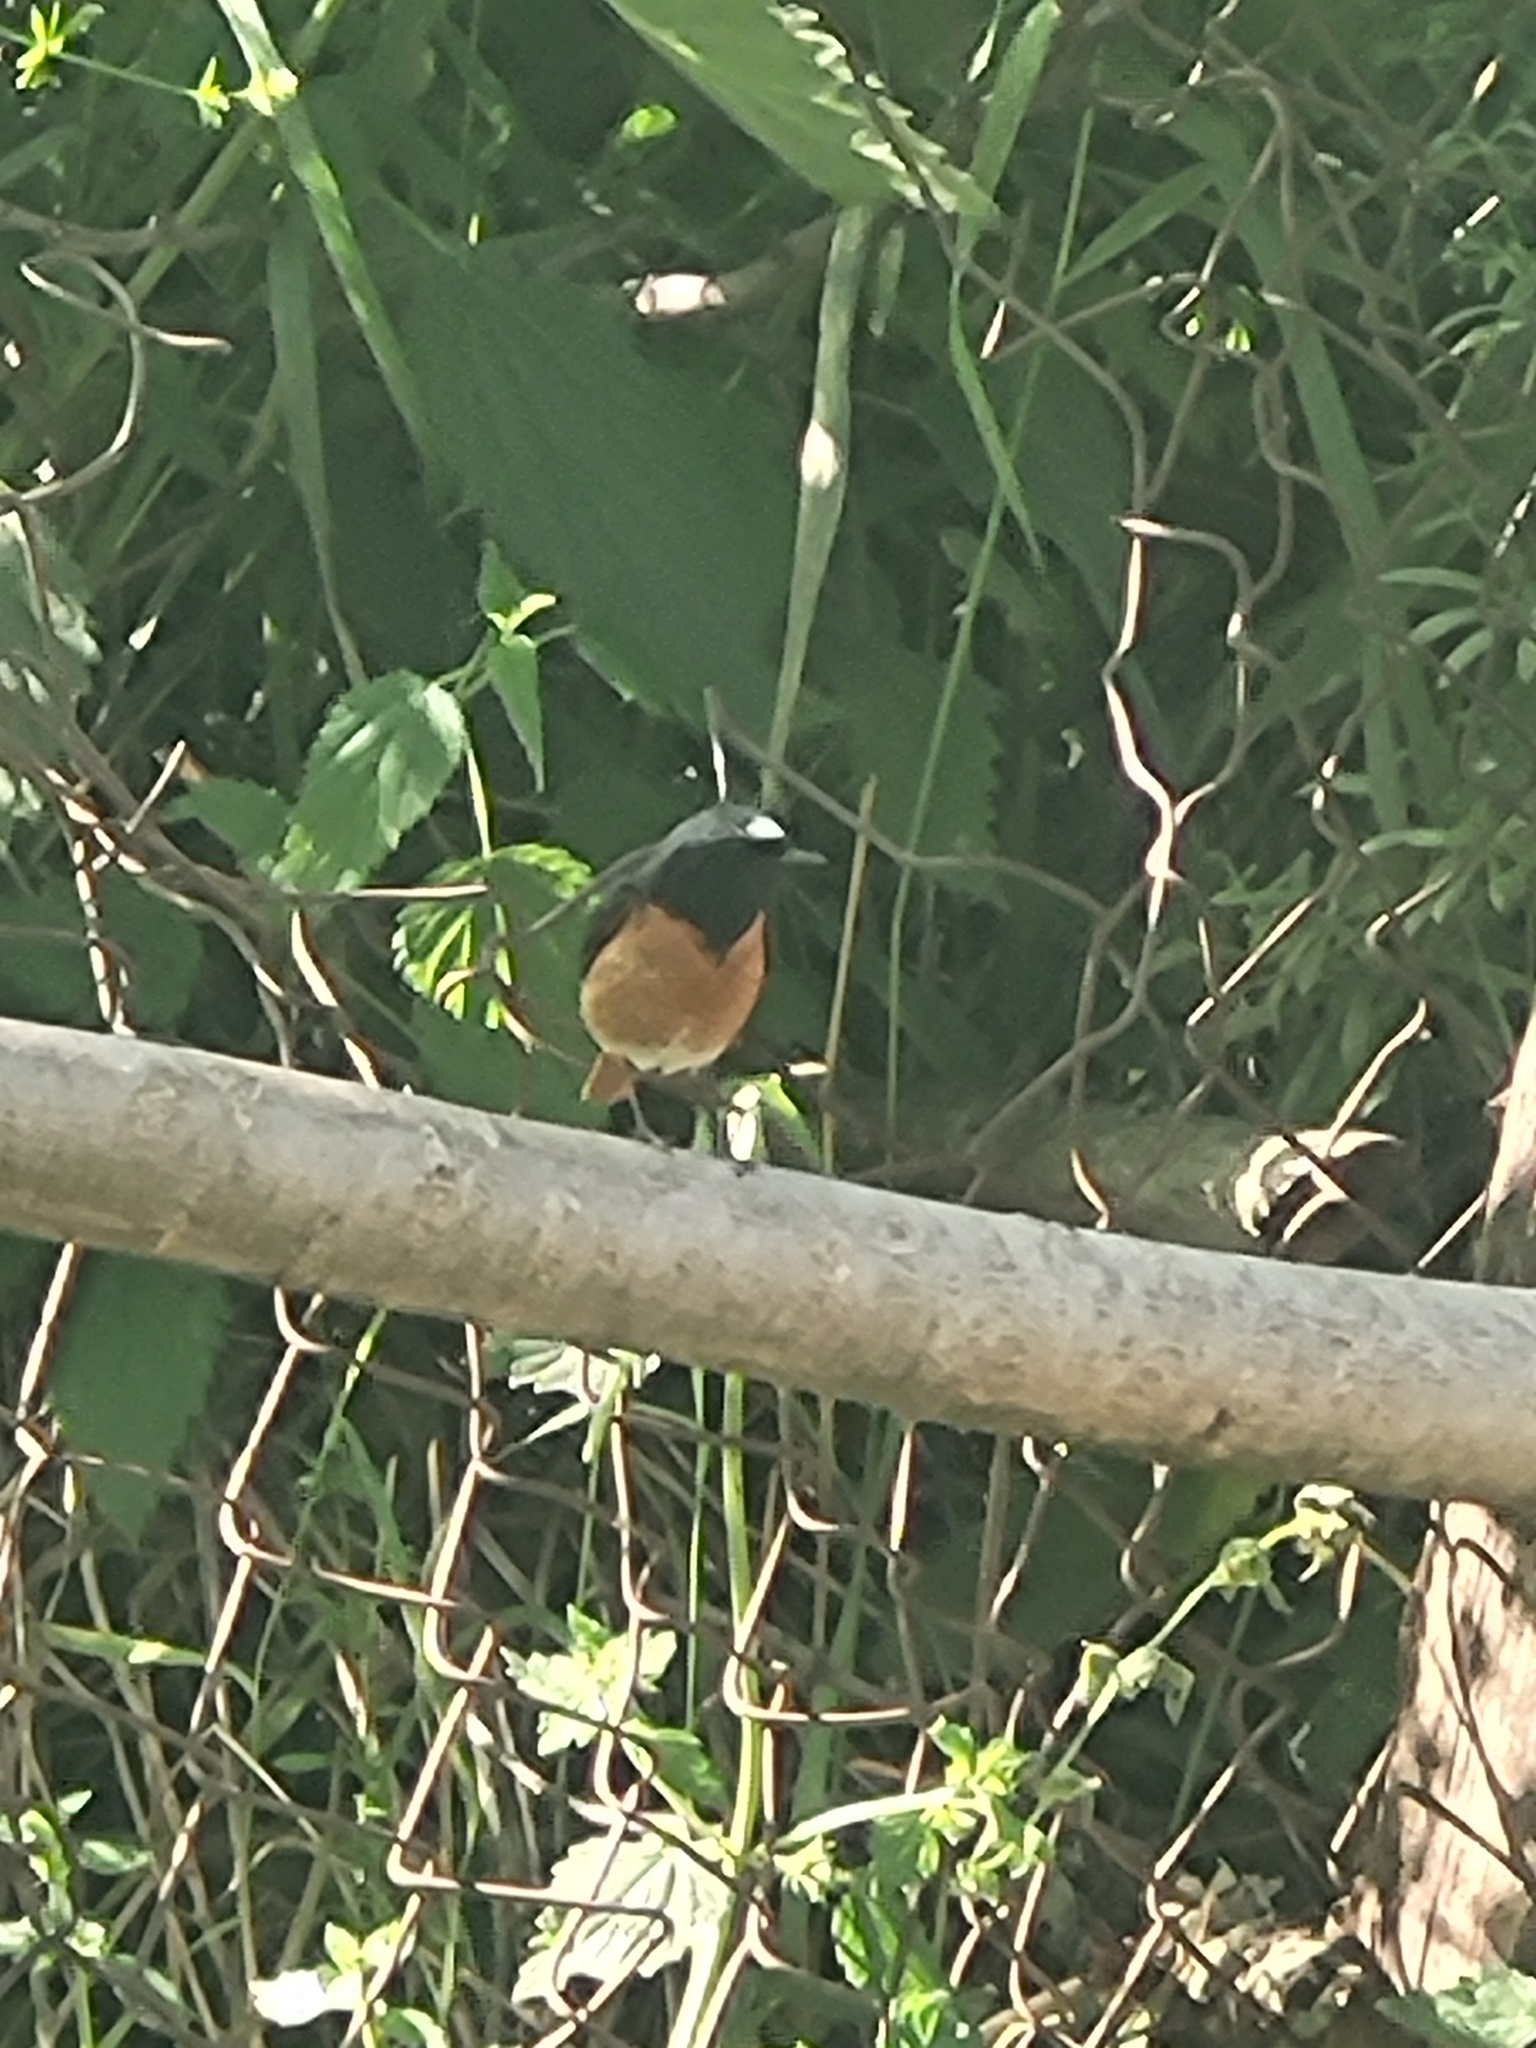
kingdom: Animalia
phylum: Chordata
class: Aves
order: Passeriformes
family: Muscicapidae
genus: Phoenicurus
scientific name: Phoenicurus phoenicurus
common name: Common redstart
